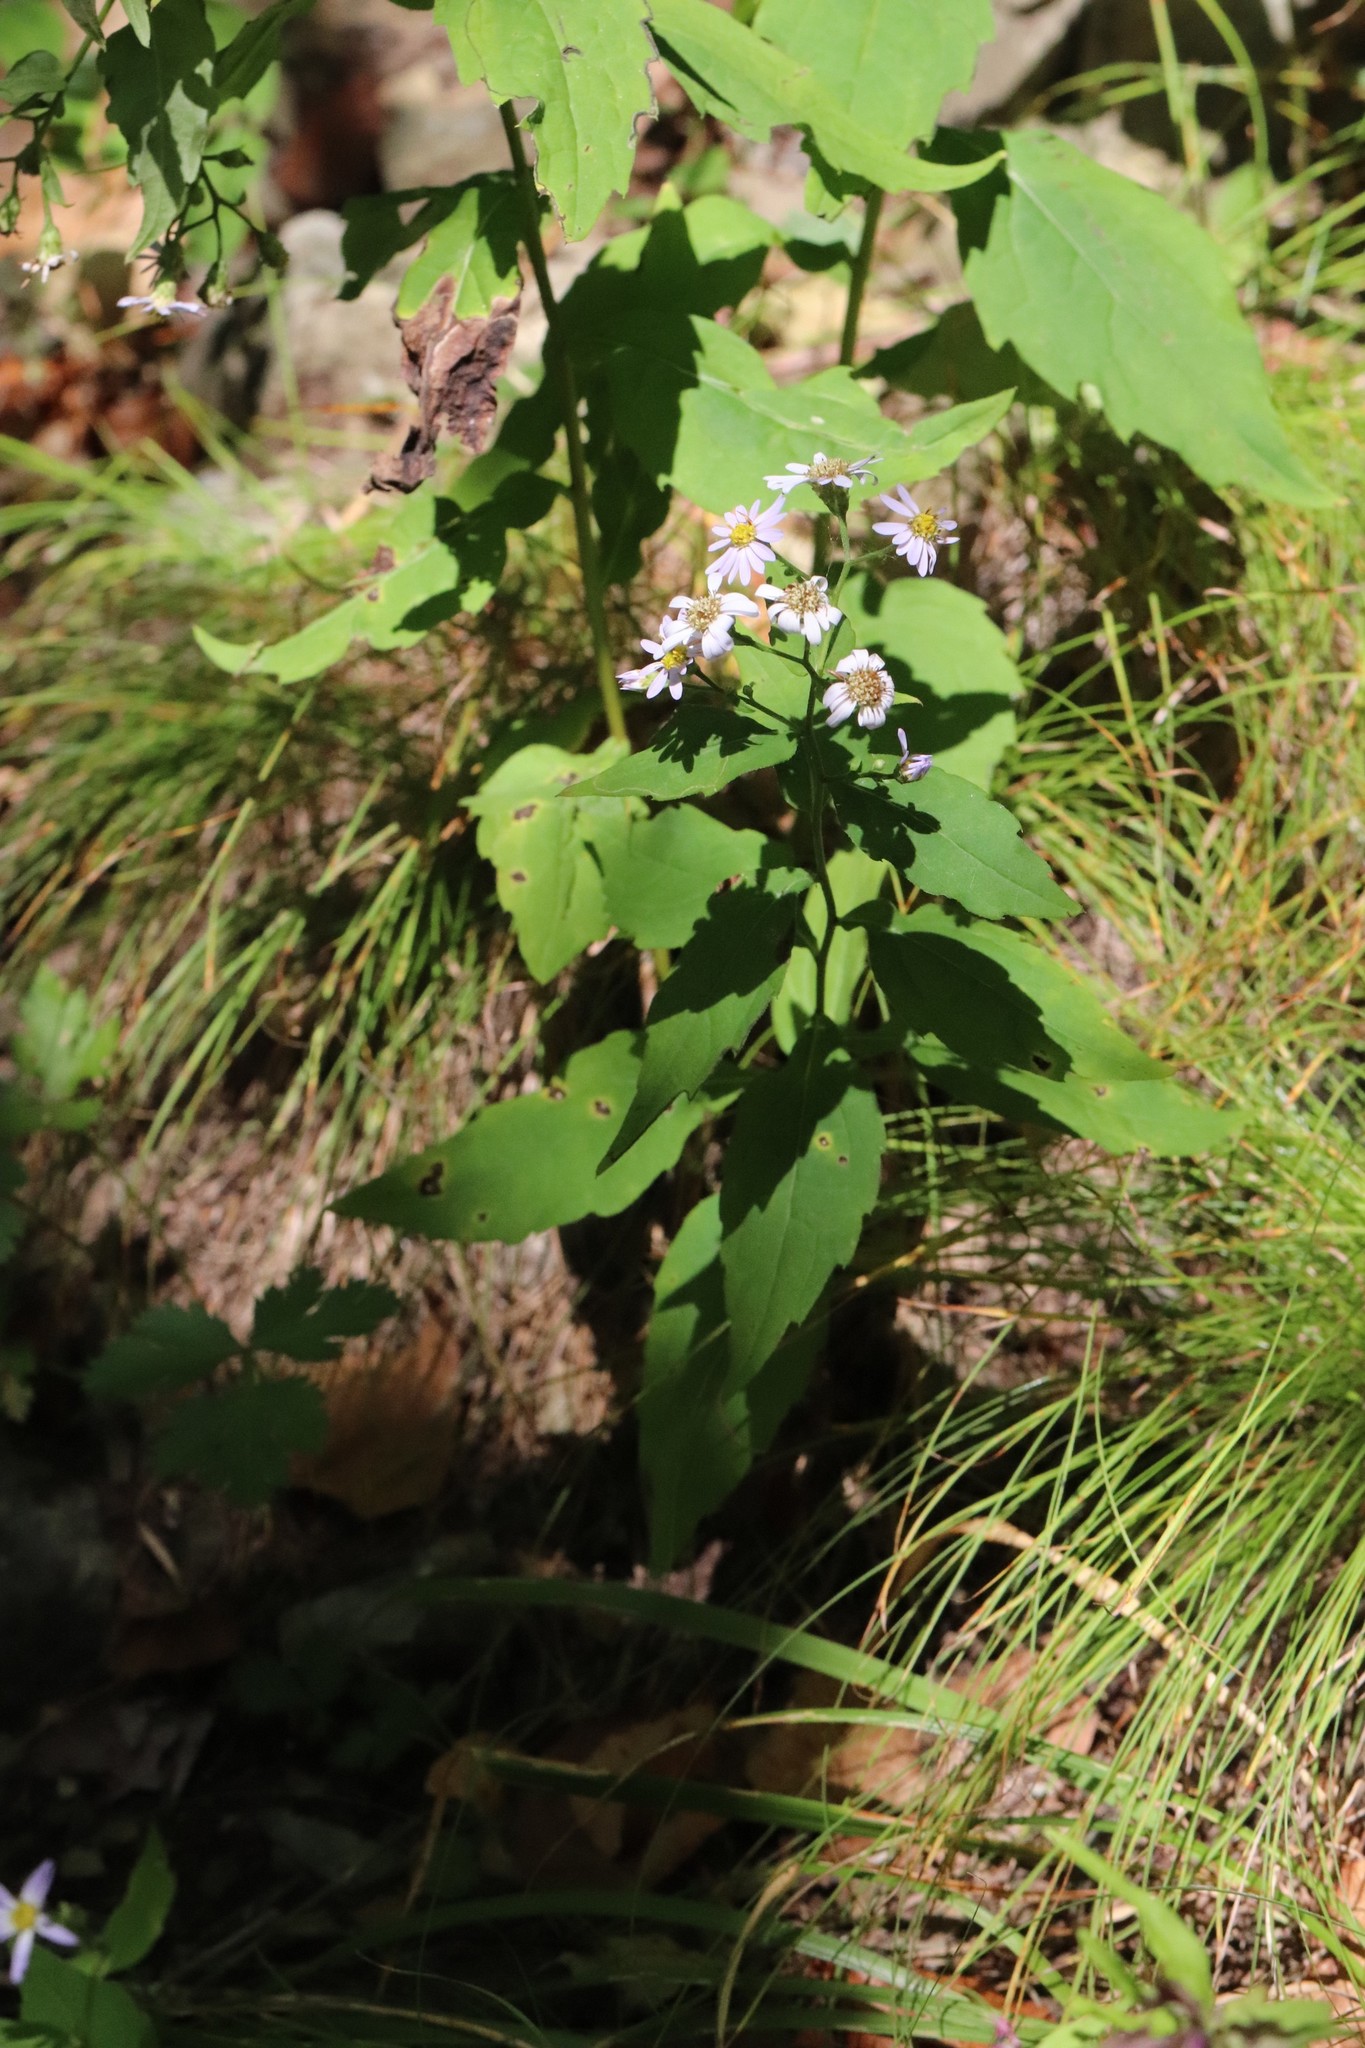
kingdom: Plantae
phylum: Tracheophyta
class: Magnoliopsida
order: Asterales
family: Asteraceae
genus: Aster
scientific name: Aster ageratoides
